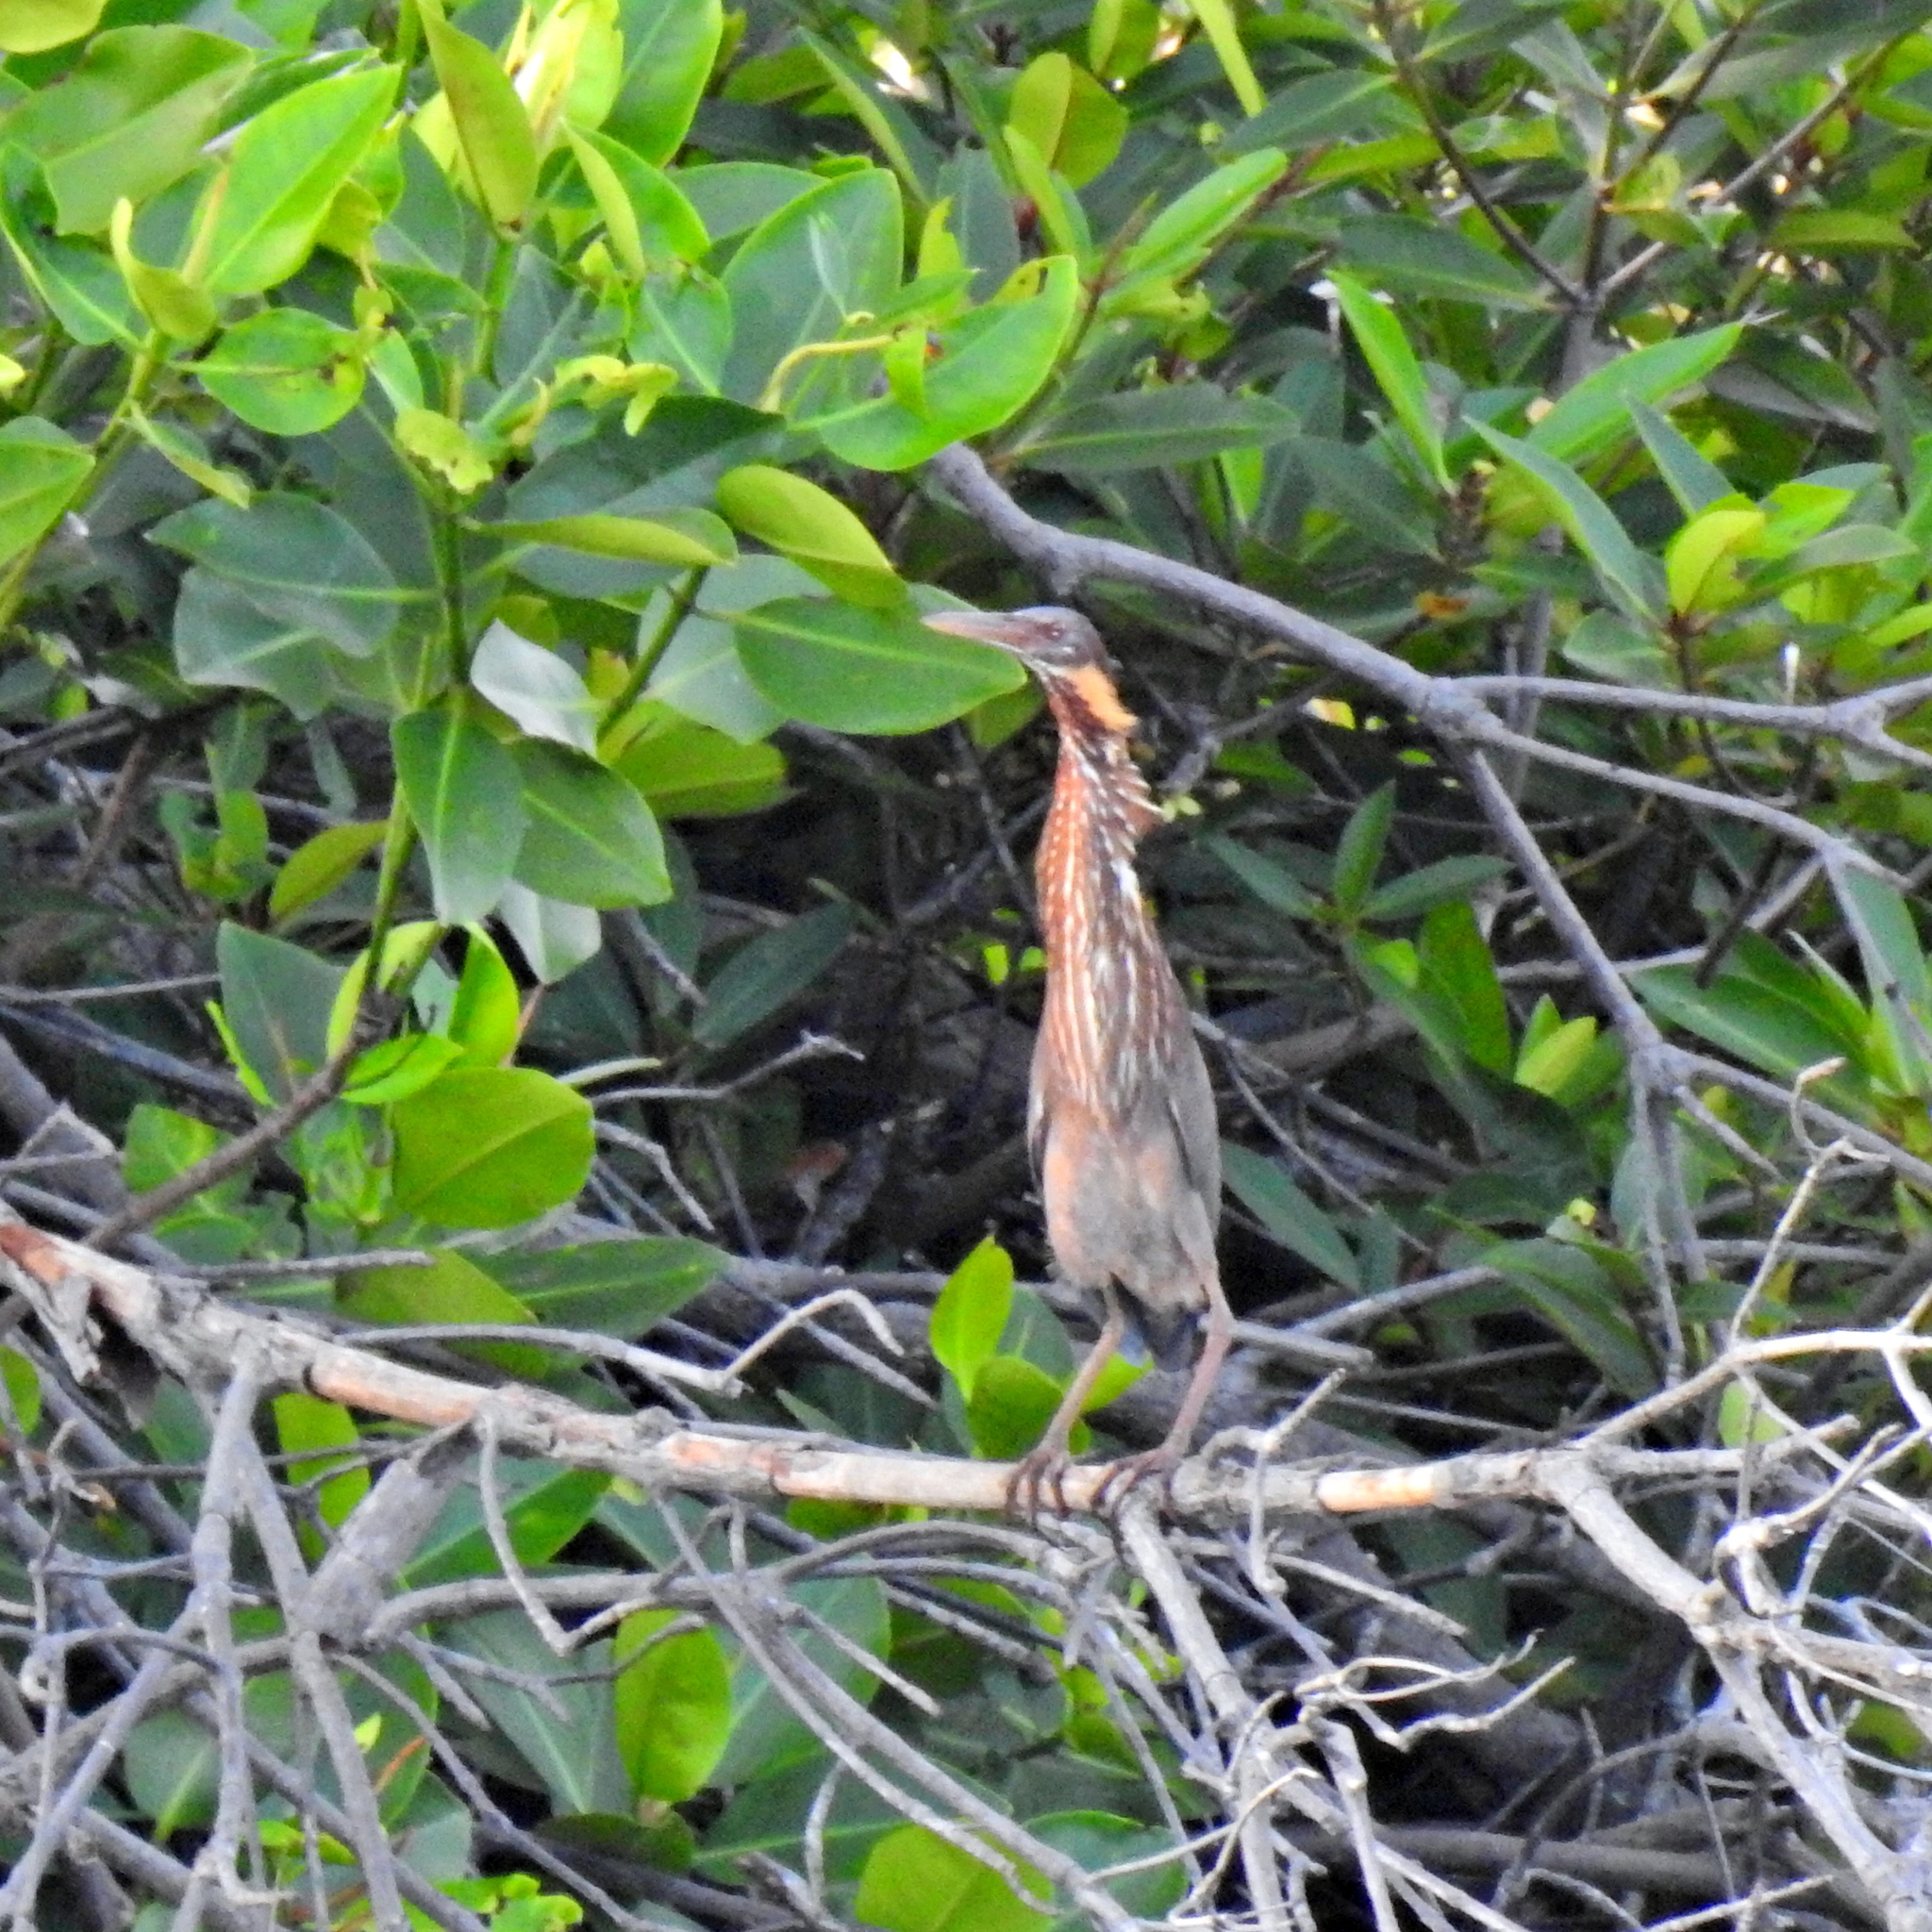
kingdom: Animalia
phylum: Chordata
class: Aves
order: Pelecaniformes
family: Ardeidae
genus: Dupetor
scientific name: Dupetor flavicollis
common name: Black bittern
